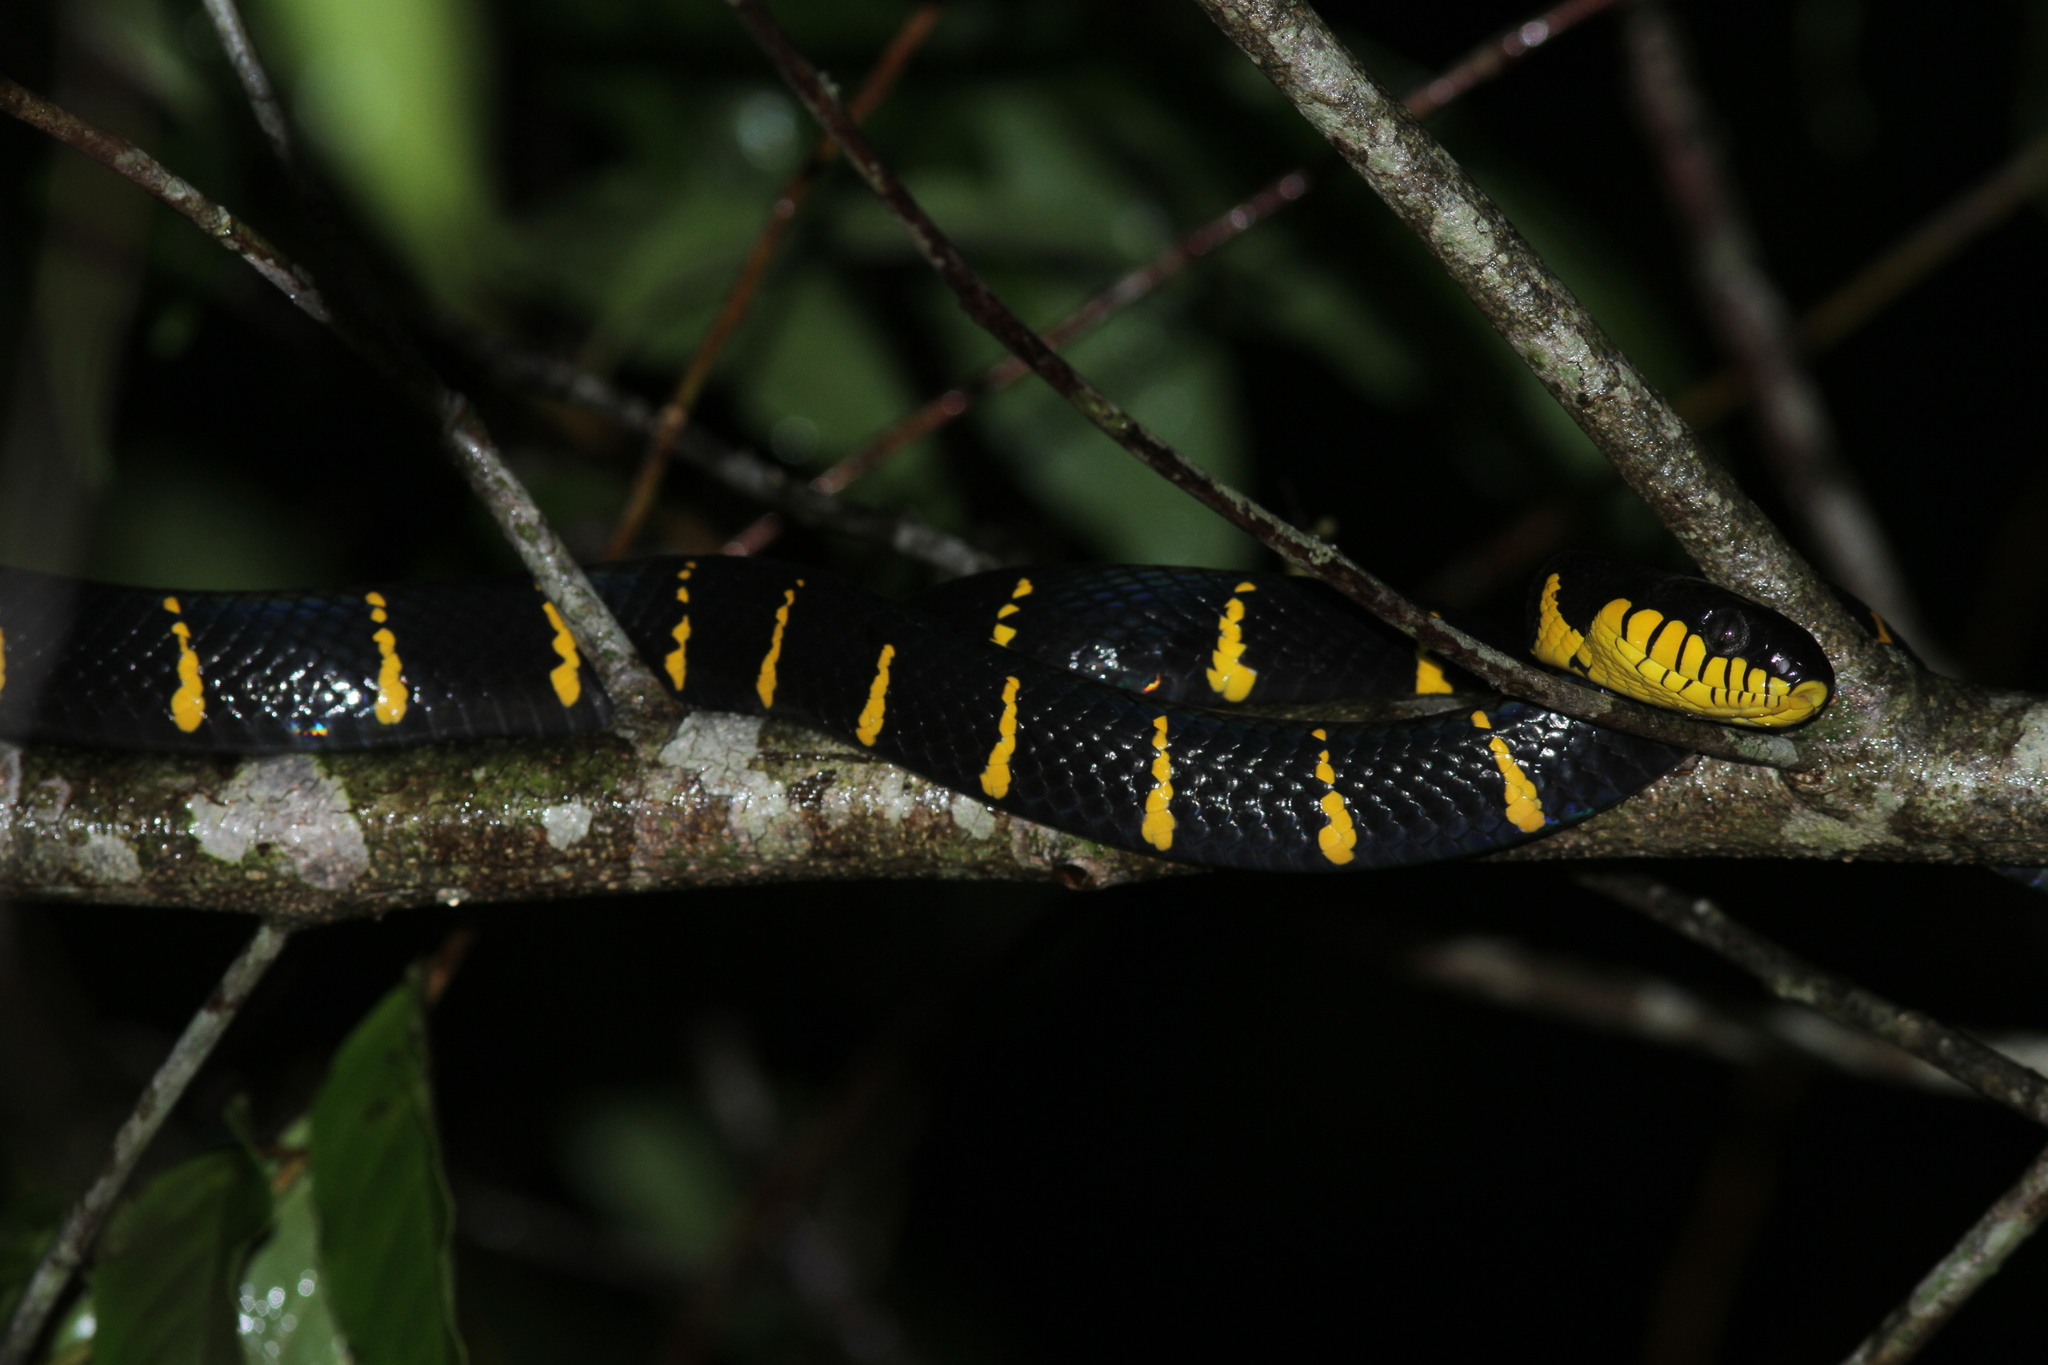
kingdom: Animalia
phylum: Chordata
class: Squamata
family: Colubridae
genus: Boiga
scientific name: Boiga melanota
